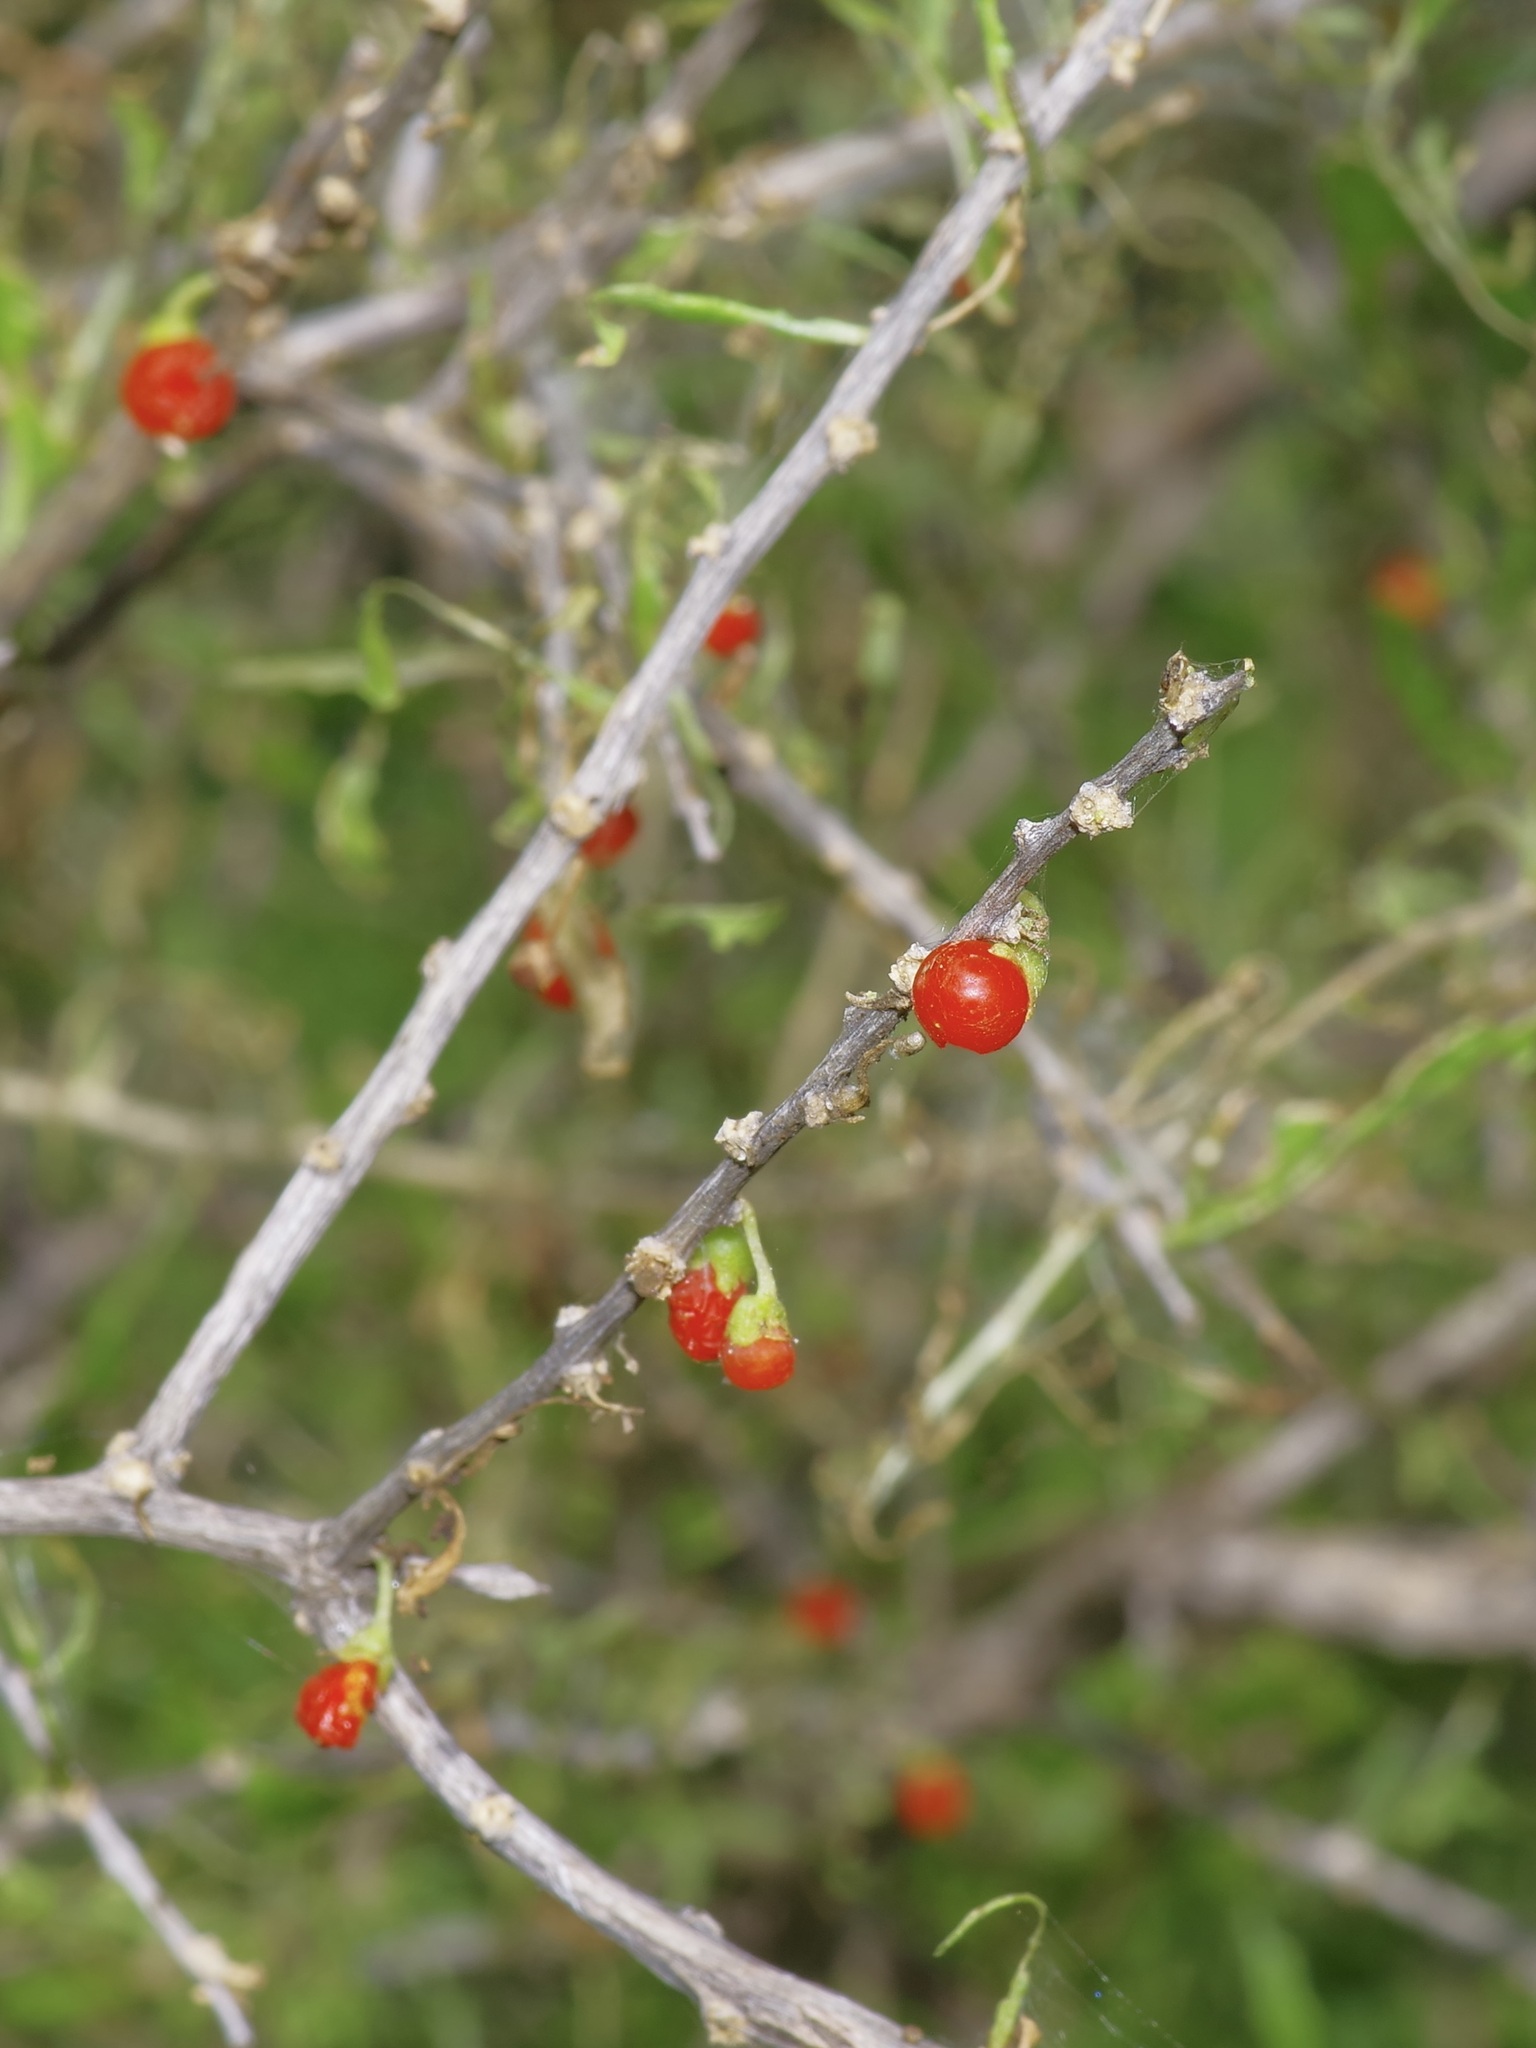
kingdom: Plantae
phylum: Tracheophyta
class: Magnoliopsida
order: Solanales
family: Solanaceae
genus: Lycium
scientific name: Lycium berlandieri
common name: Berlandier wolfberry
